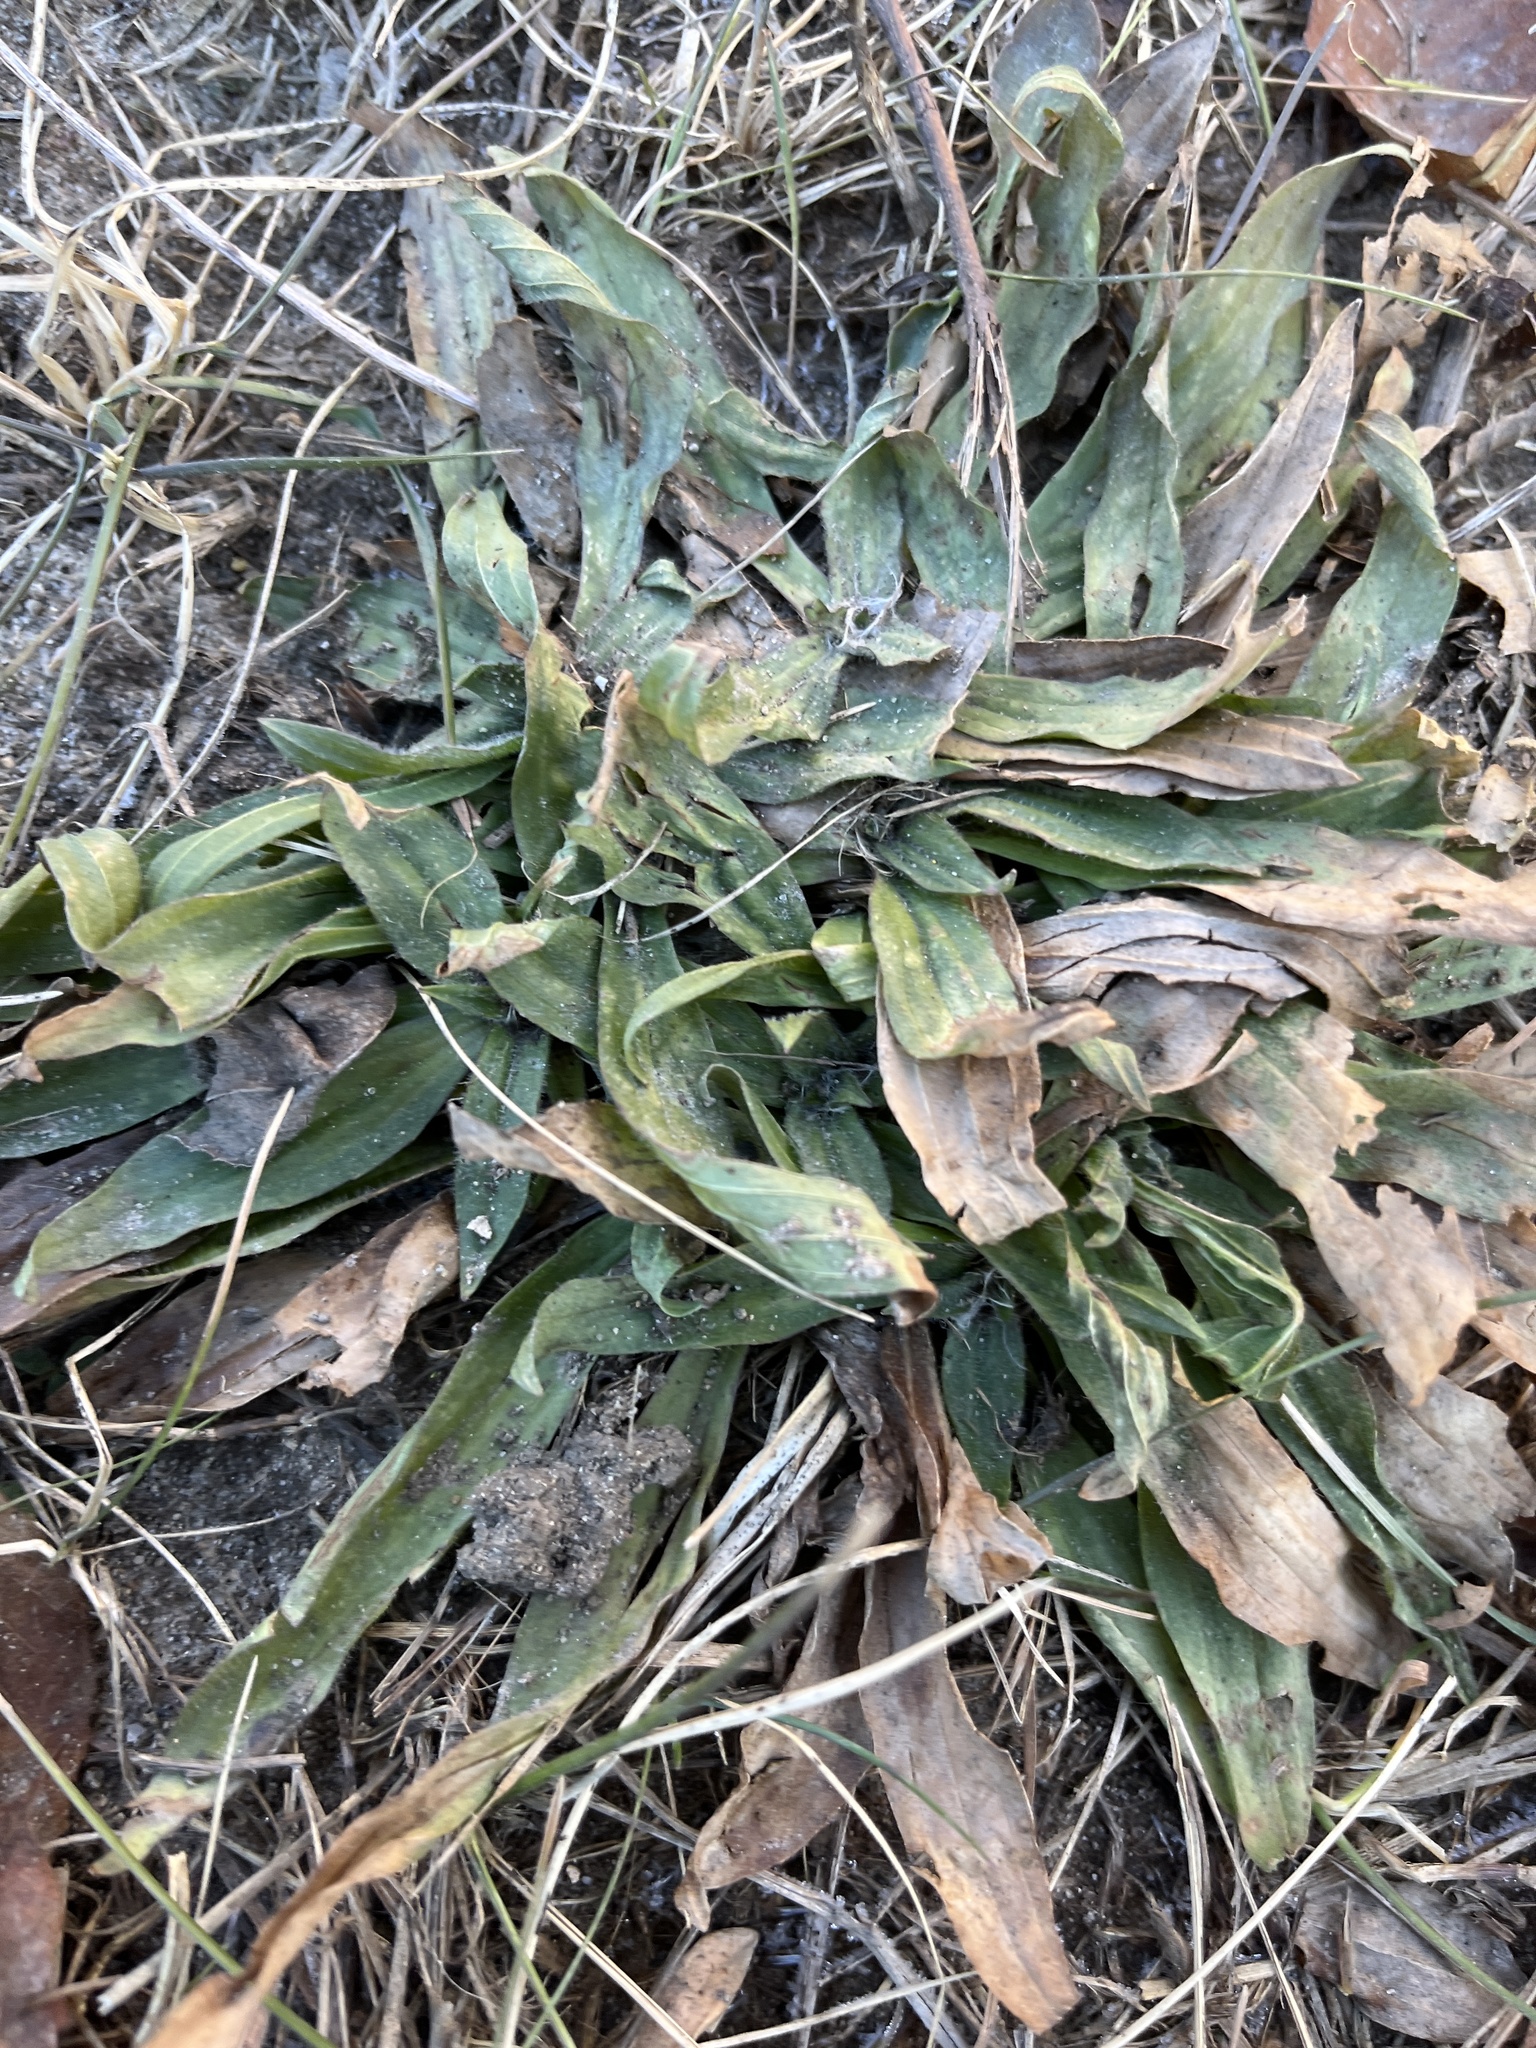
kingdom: Plantae
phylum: Tracheophyta
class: Magnoliopsida
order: Lamiales
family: Plantaginaceae
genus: Plantago
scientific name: Plantago lanceolata
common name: Ribwort plantain
